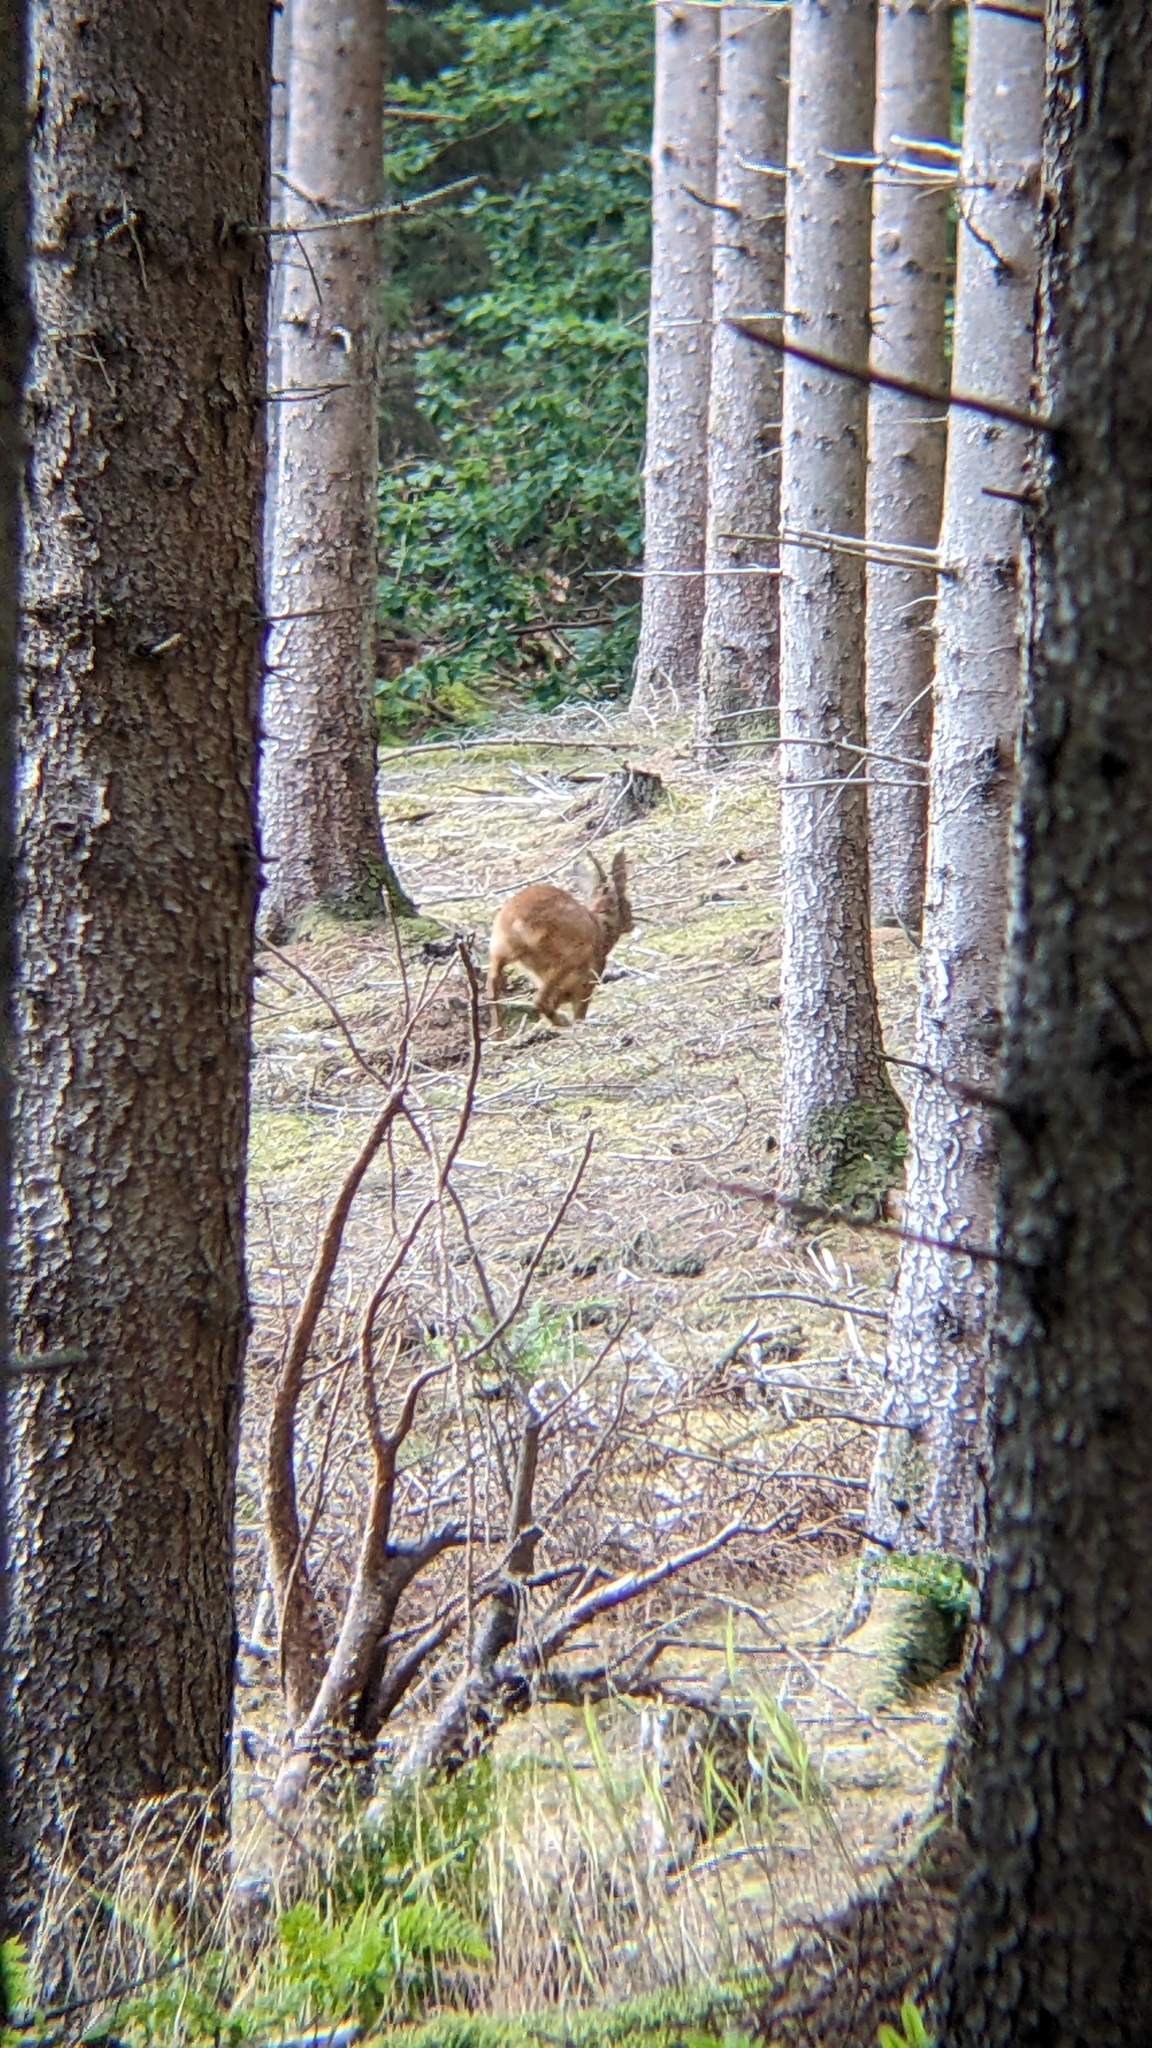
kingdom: Animalia
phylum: Chordata
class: Mammalia
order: Artiodactyla
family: Cervidae
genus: Capreolus
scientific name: Capreolus capreolus
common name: Western roe deer
